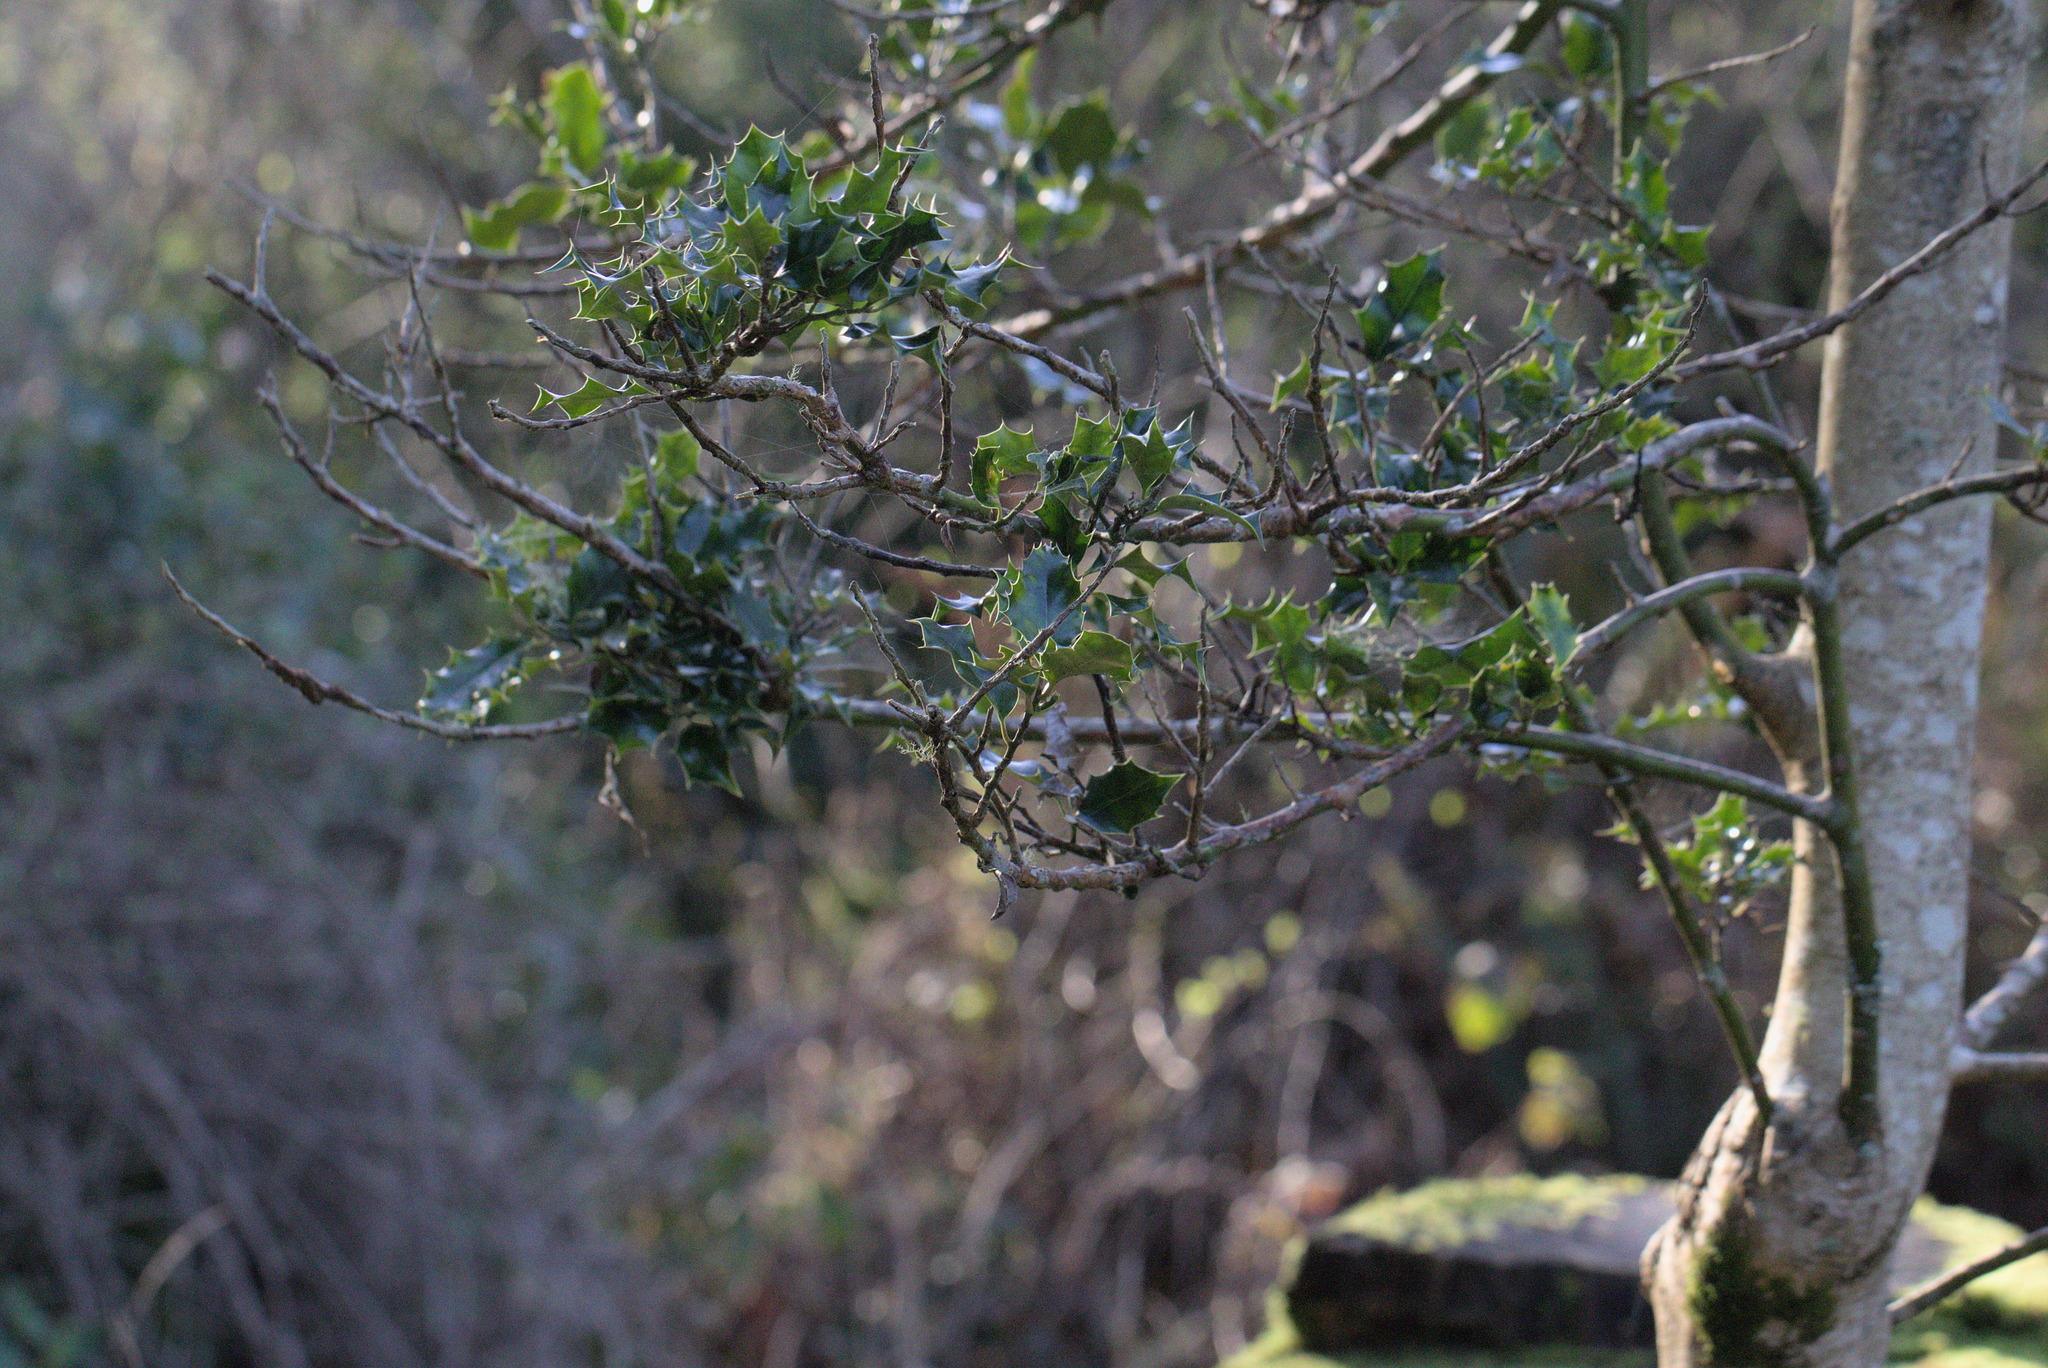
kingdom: Plantae
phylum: Tracheophyta
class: Magnoliopsida
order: Aquifoliales
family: Aquifoliaceae
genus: Ilex
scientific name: Ilex aquifolium
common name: English holly
